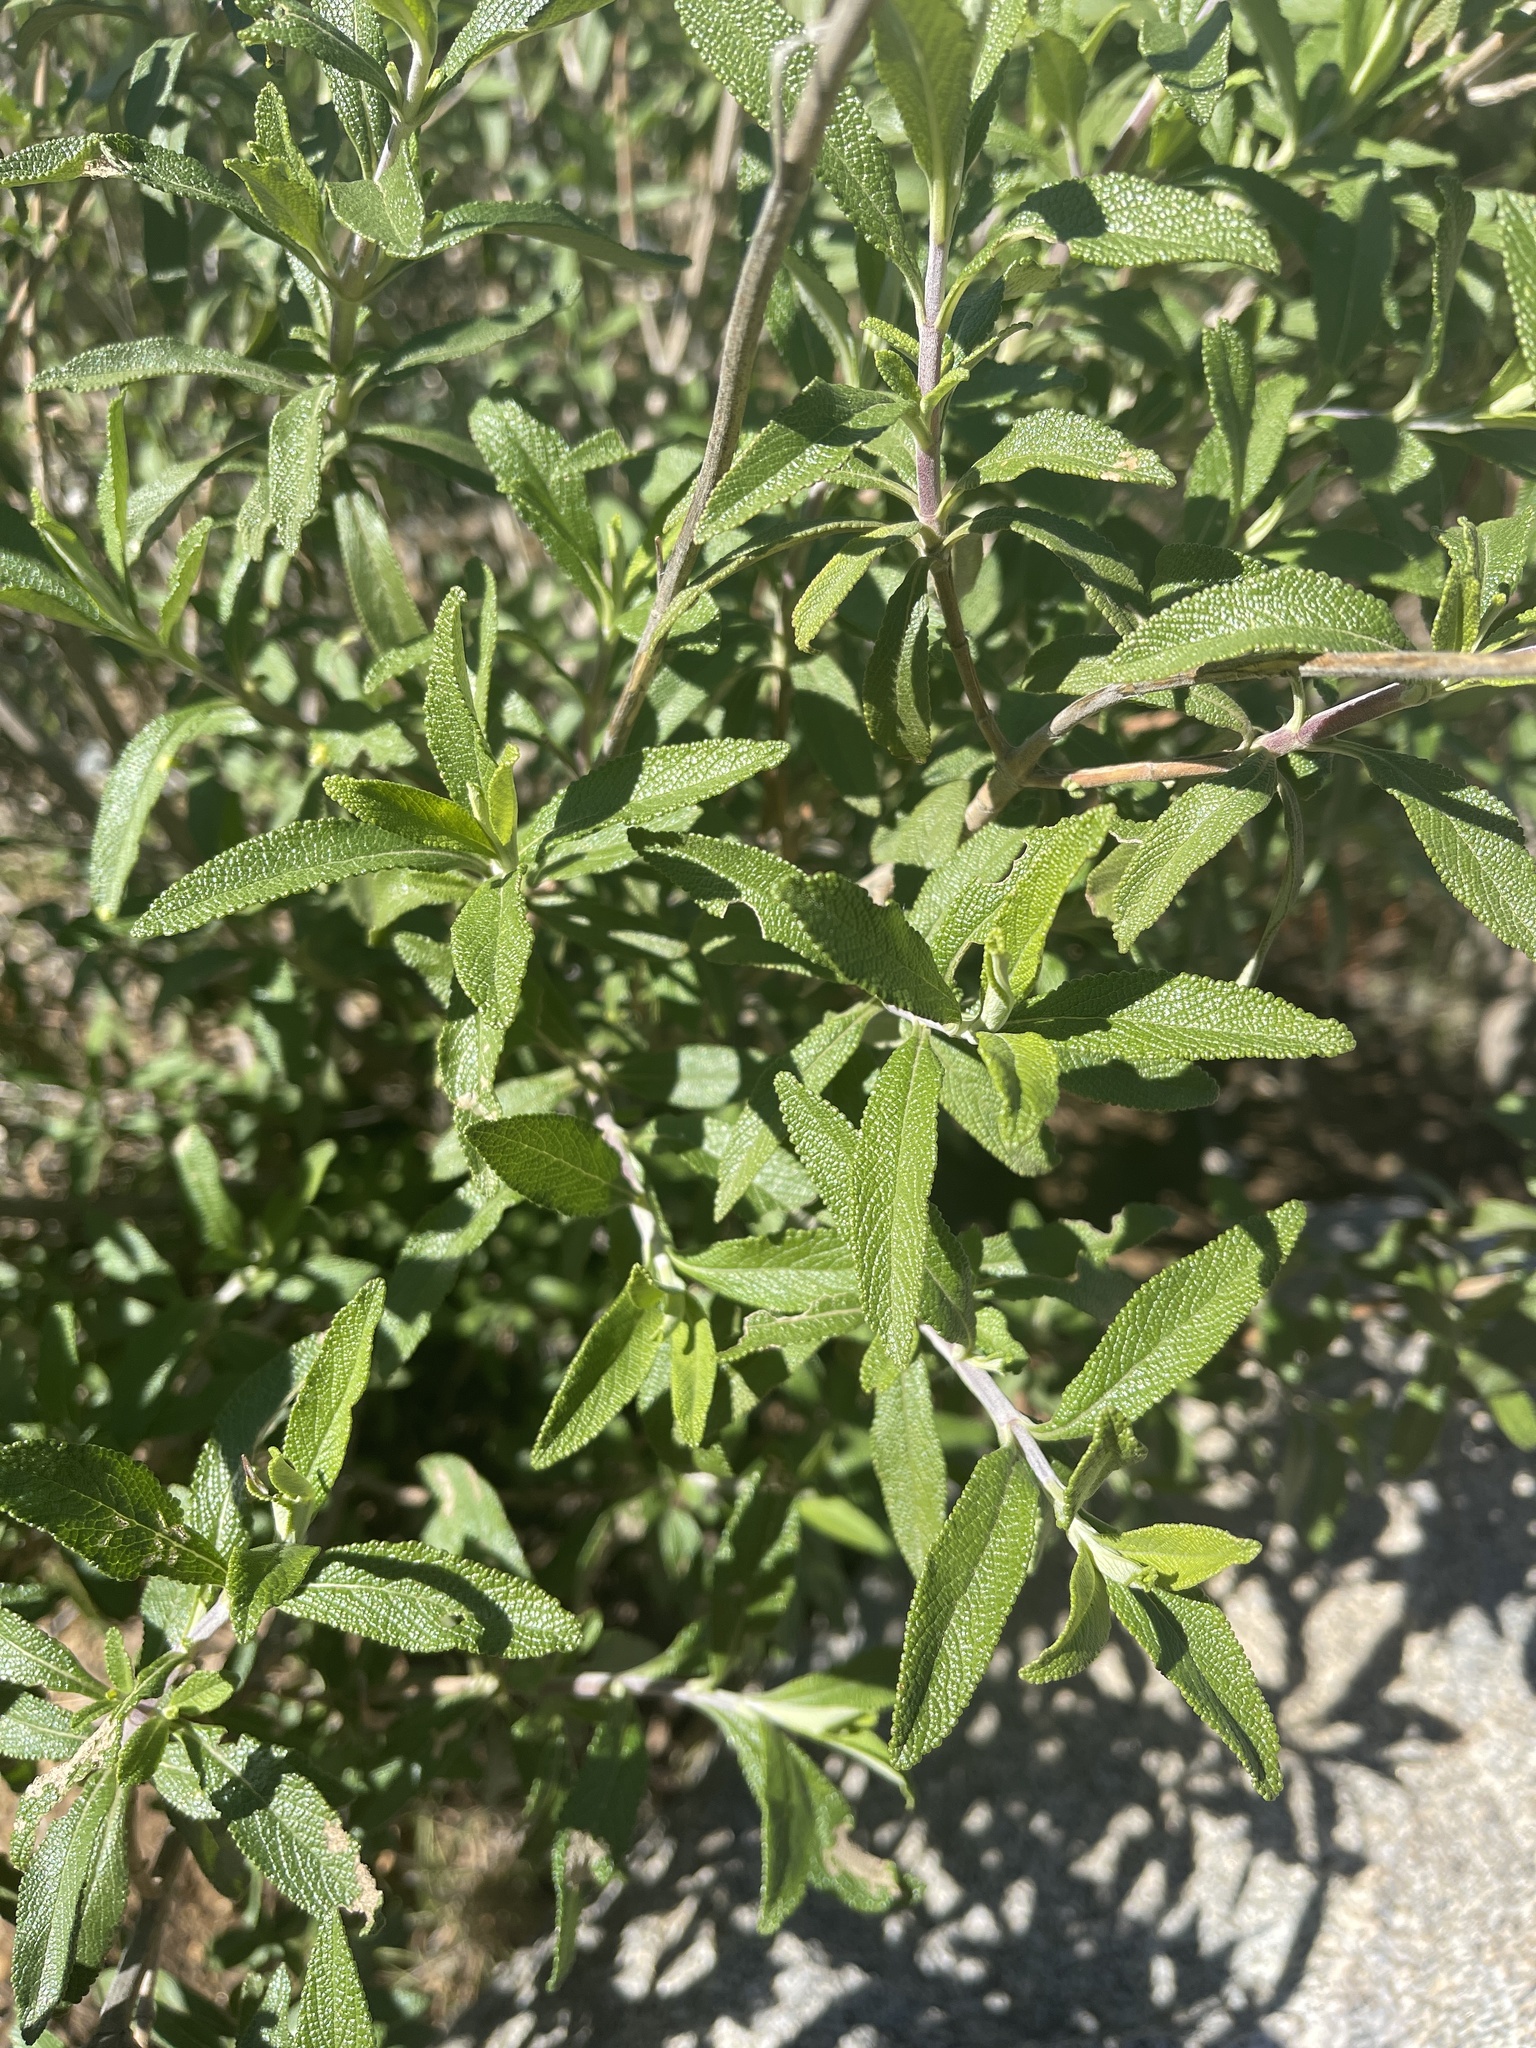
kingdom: Plantae
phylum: Tracheophyta
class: Magnoliopsida
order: Lamiales
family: Lamiaceae
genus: Salvia
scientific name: Salvia mellifera
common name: Black sage
